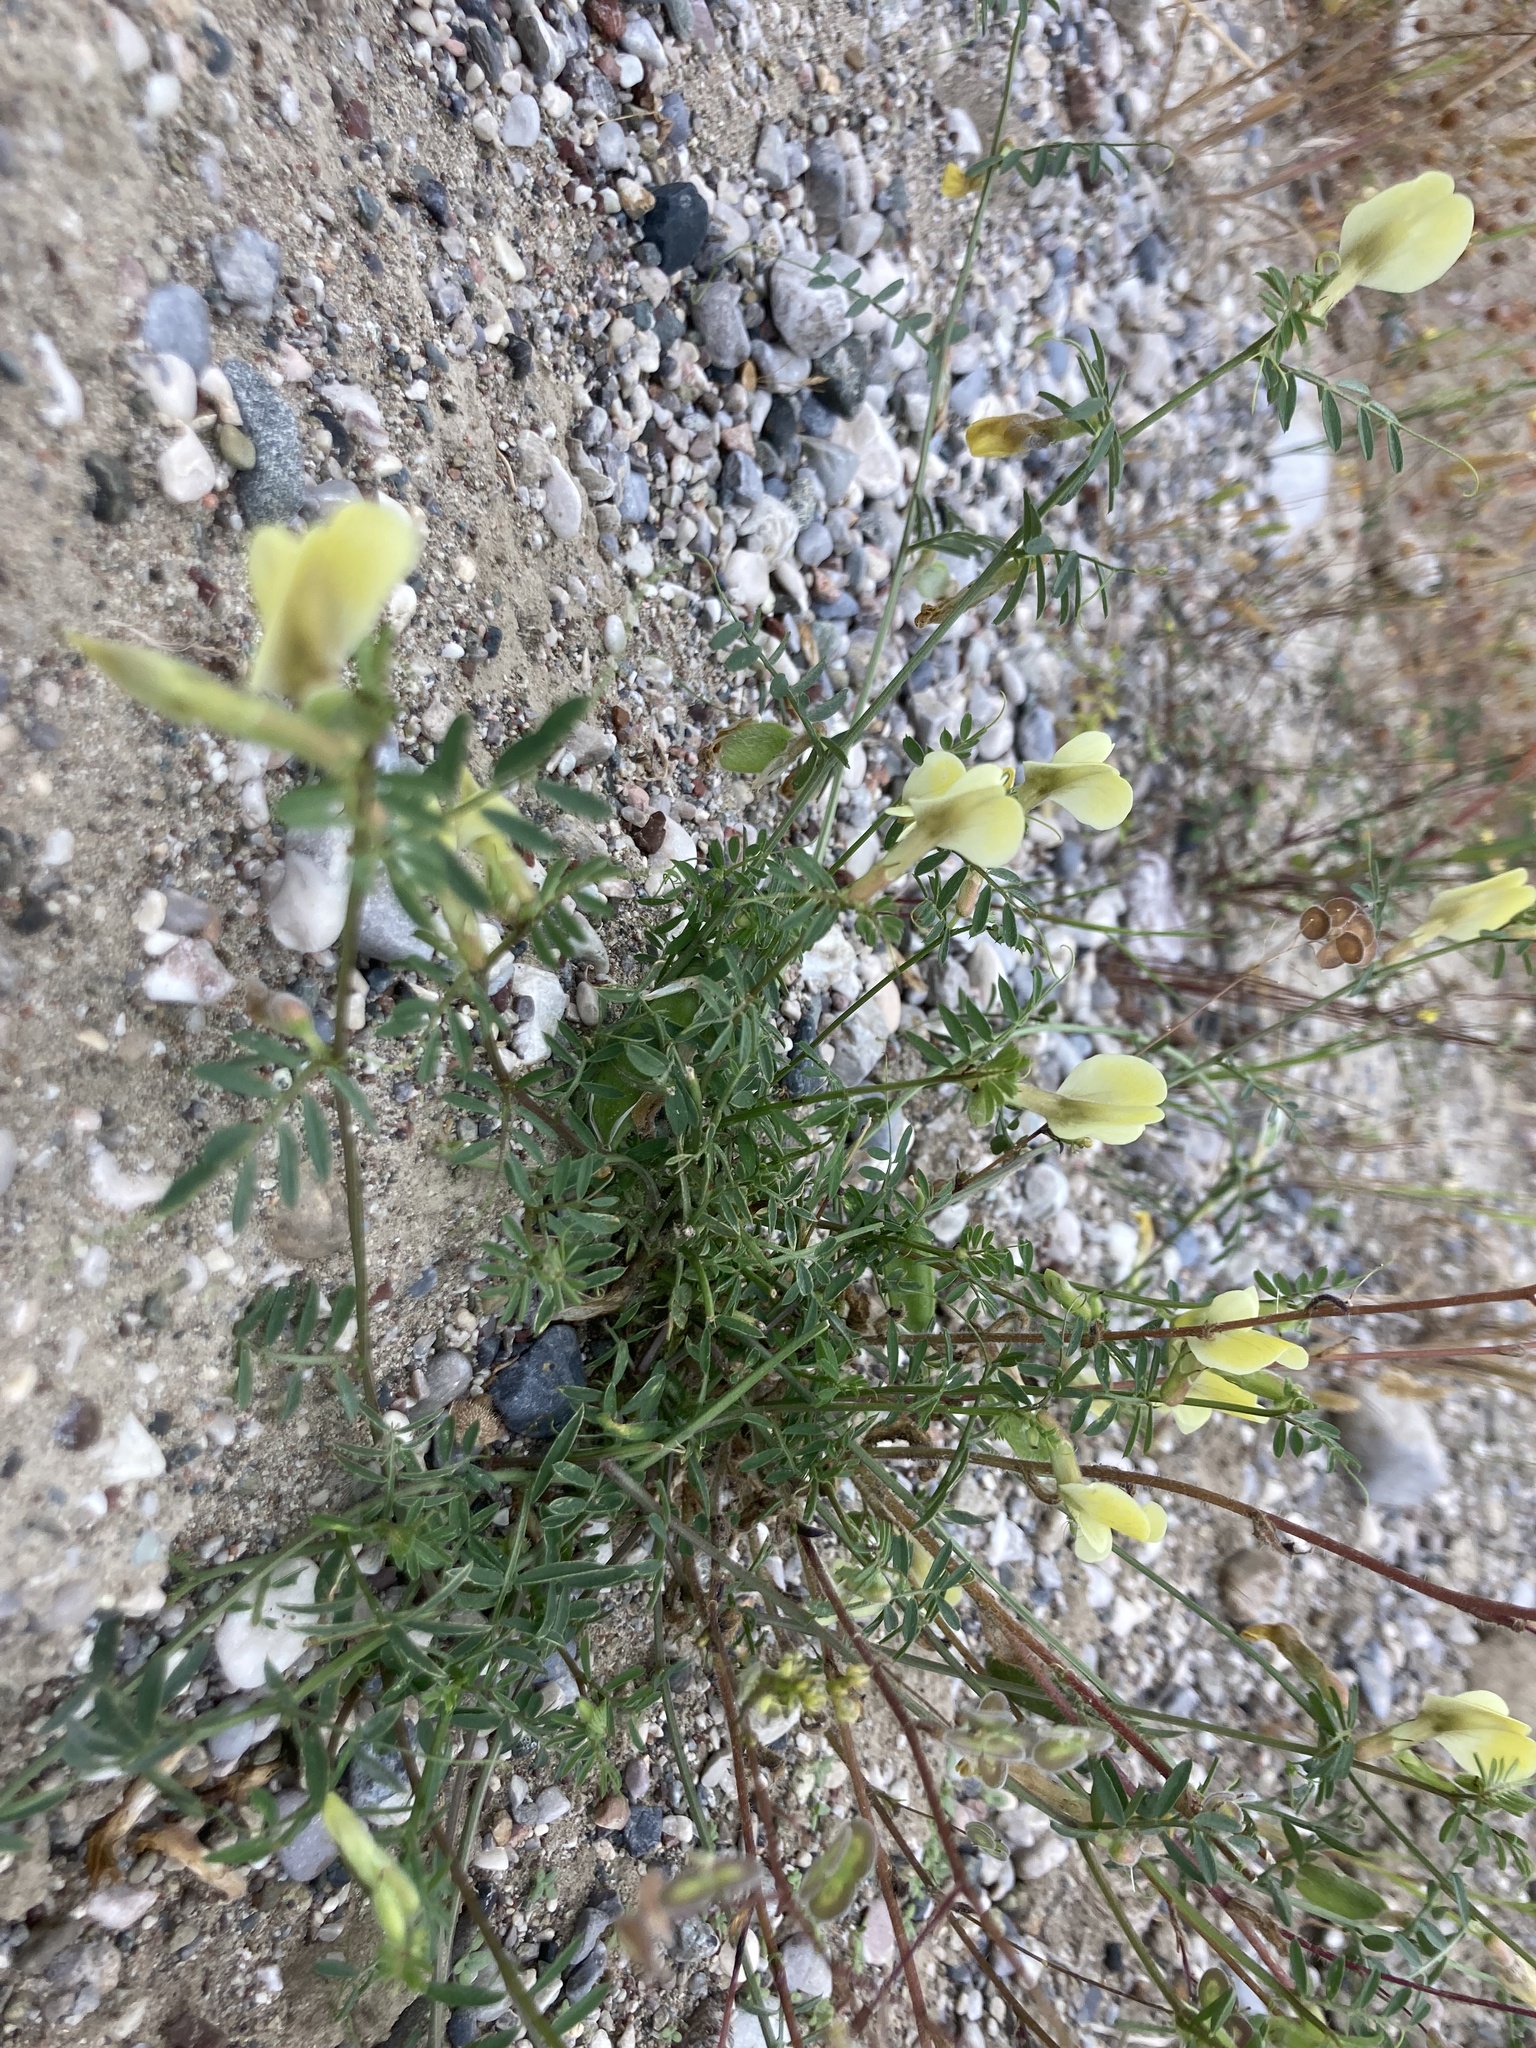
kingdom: Plantae
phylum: Tracheophyta
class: Magnoliopsida
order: Fabales
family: Fabaceae
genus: Vicia
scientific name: Vicia hybrida
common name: Hairy yellow vetch
